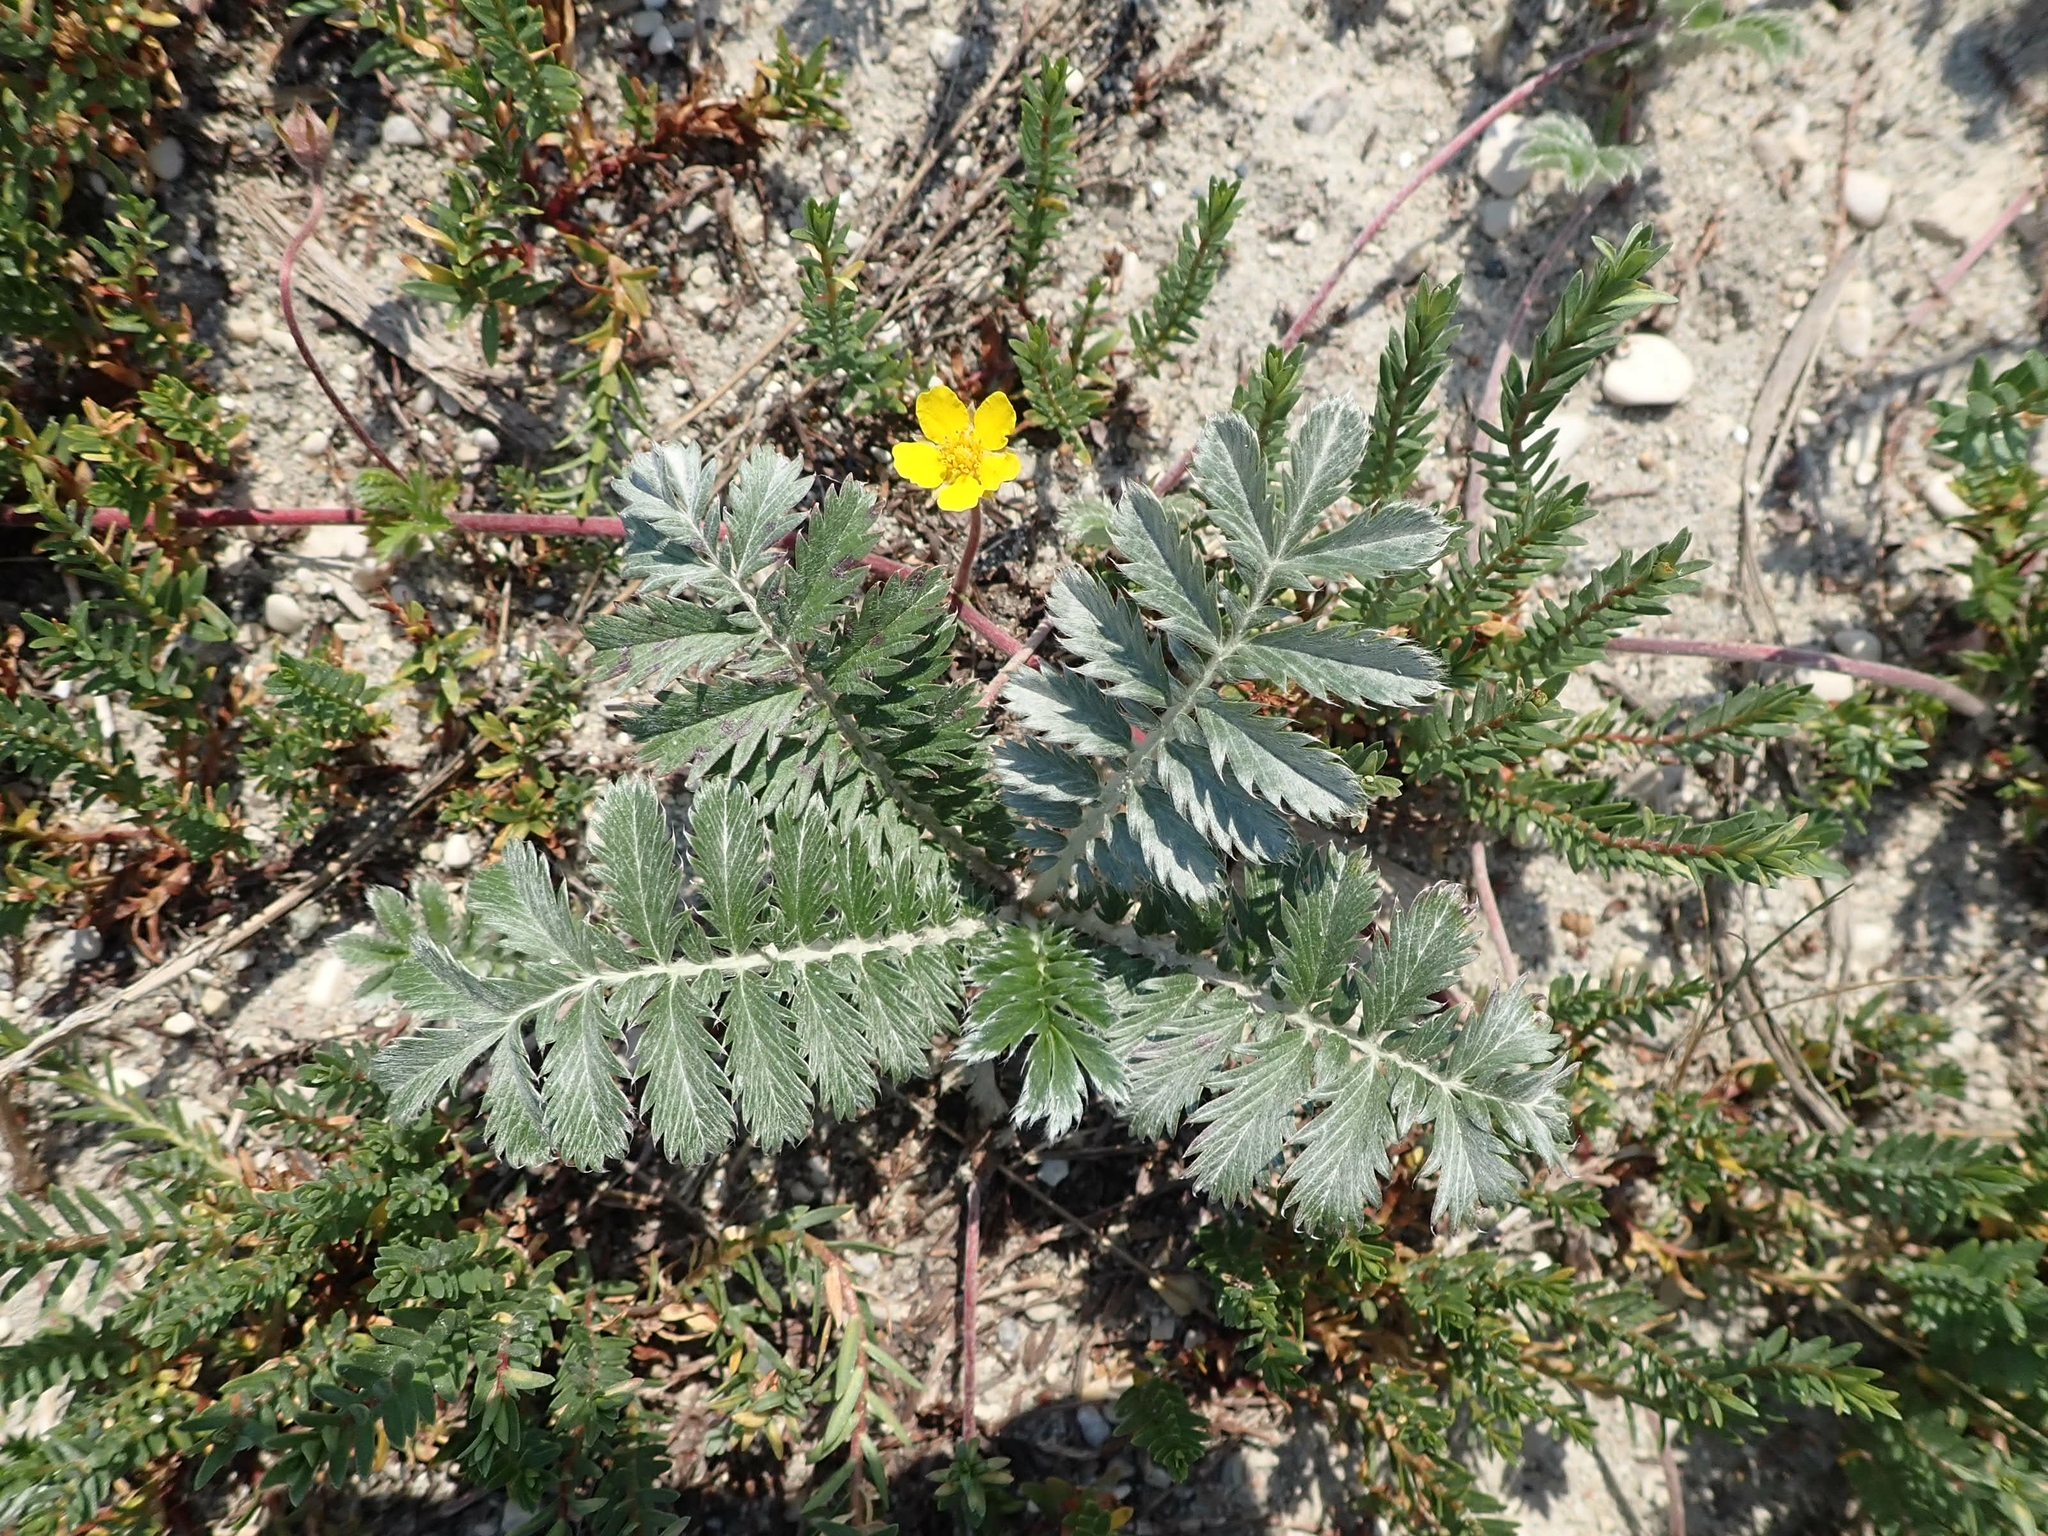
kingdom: Plantae
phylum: Tracheophyta
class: Magnoliopsida
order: Rosales
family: Rosaceae
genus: Argentina
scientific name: Argentina anserina
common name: Common silverweed
